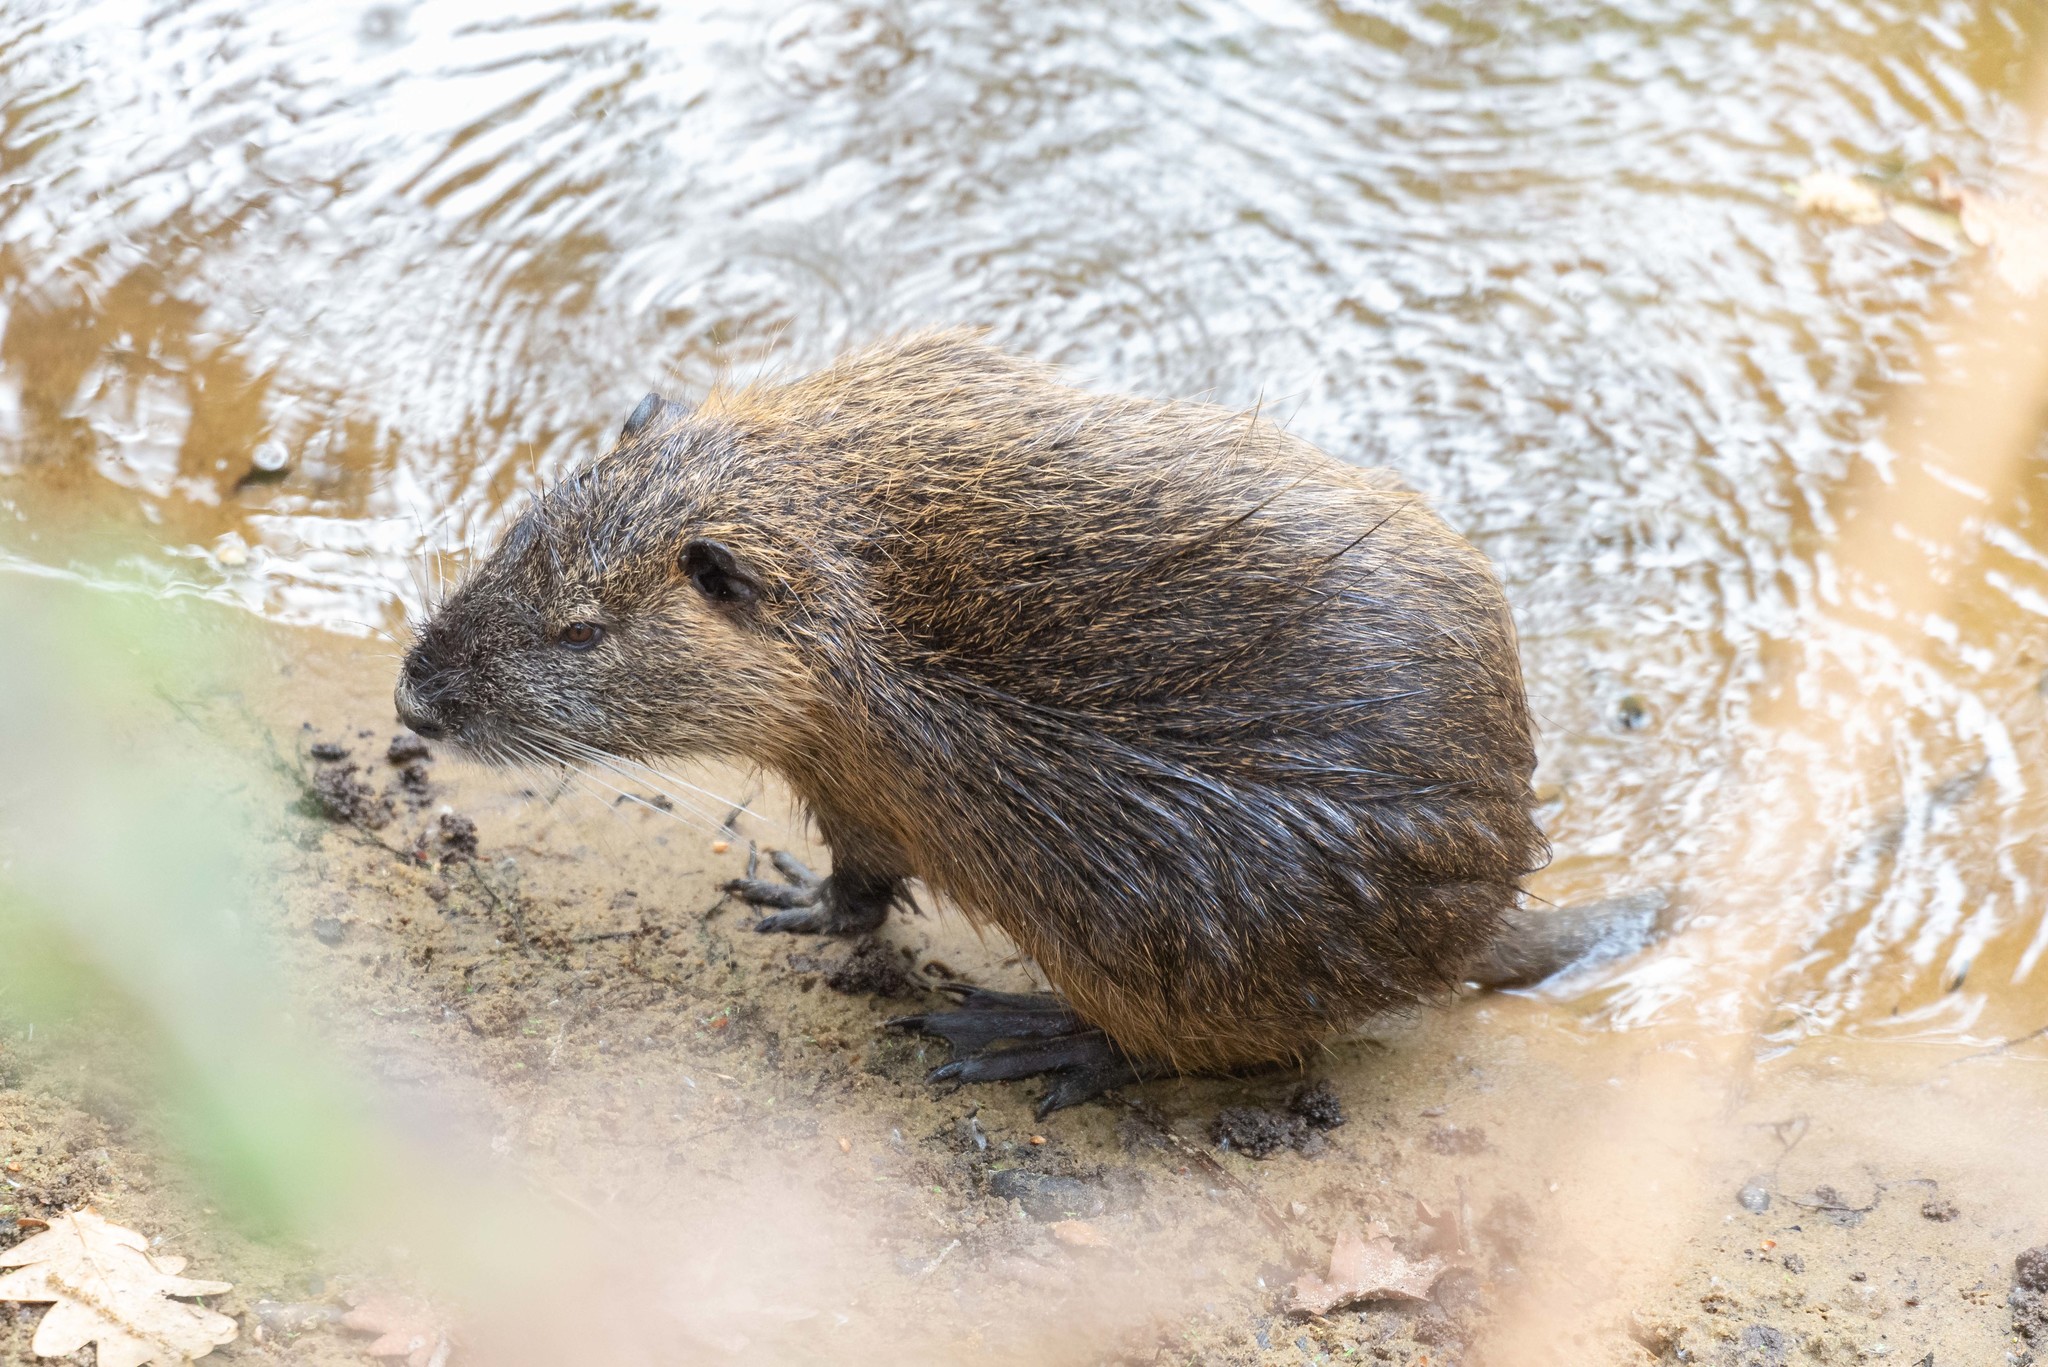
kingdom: Animalia
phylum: Chordata
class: Mammalia
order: Rodentia
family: Myocastoridae
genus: Myocastor
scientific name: Myocastor coypus
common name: Coypu
